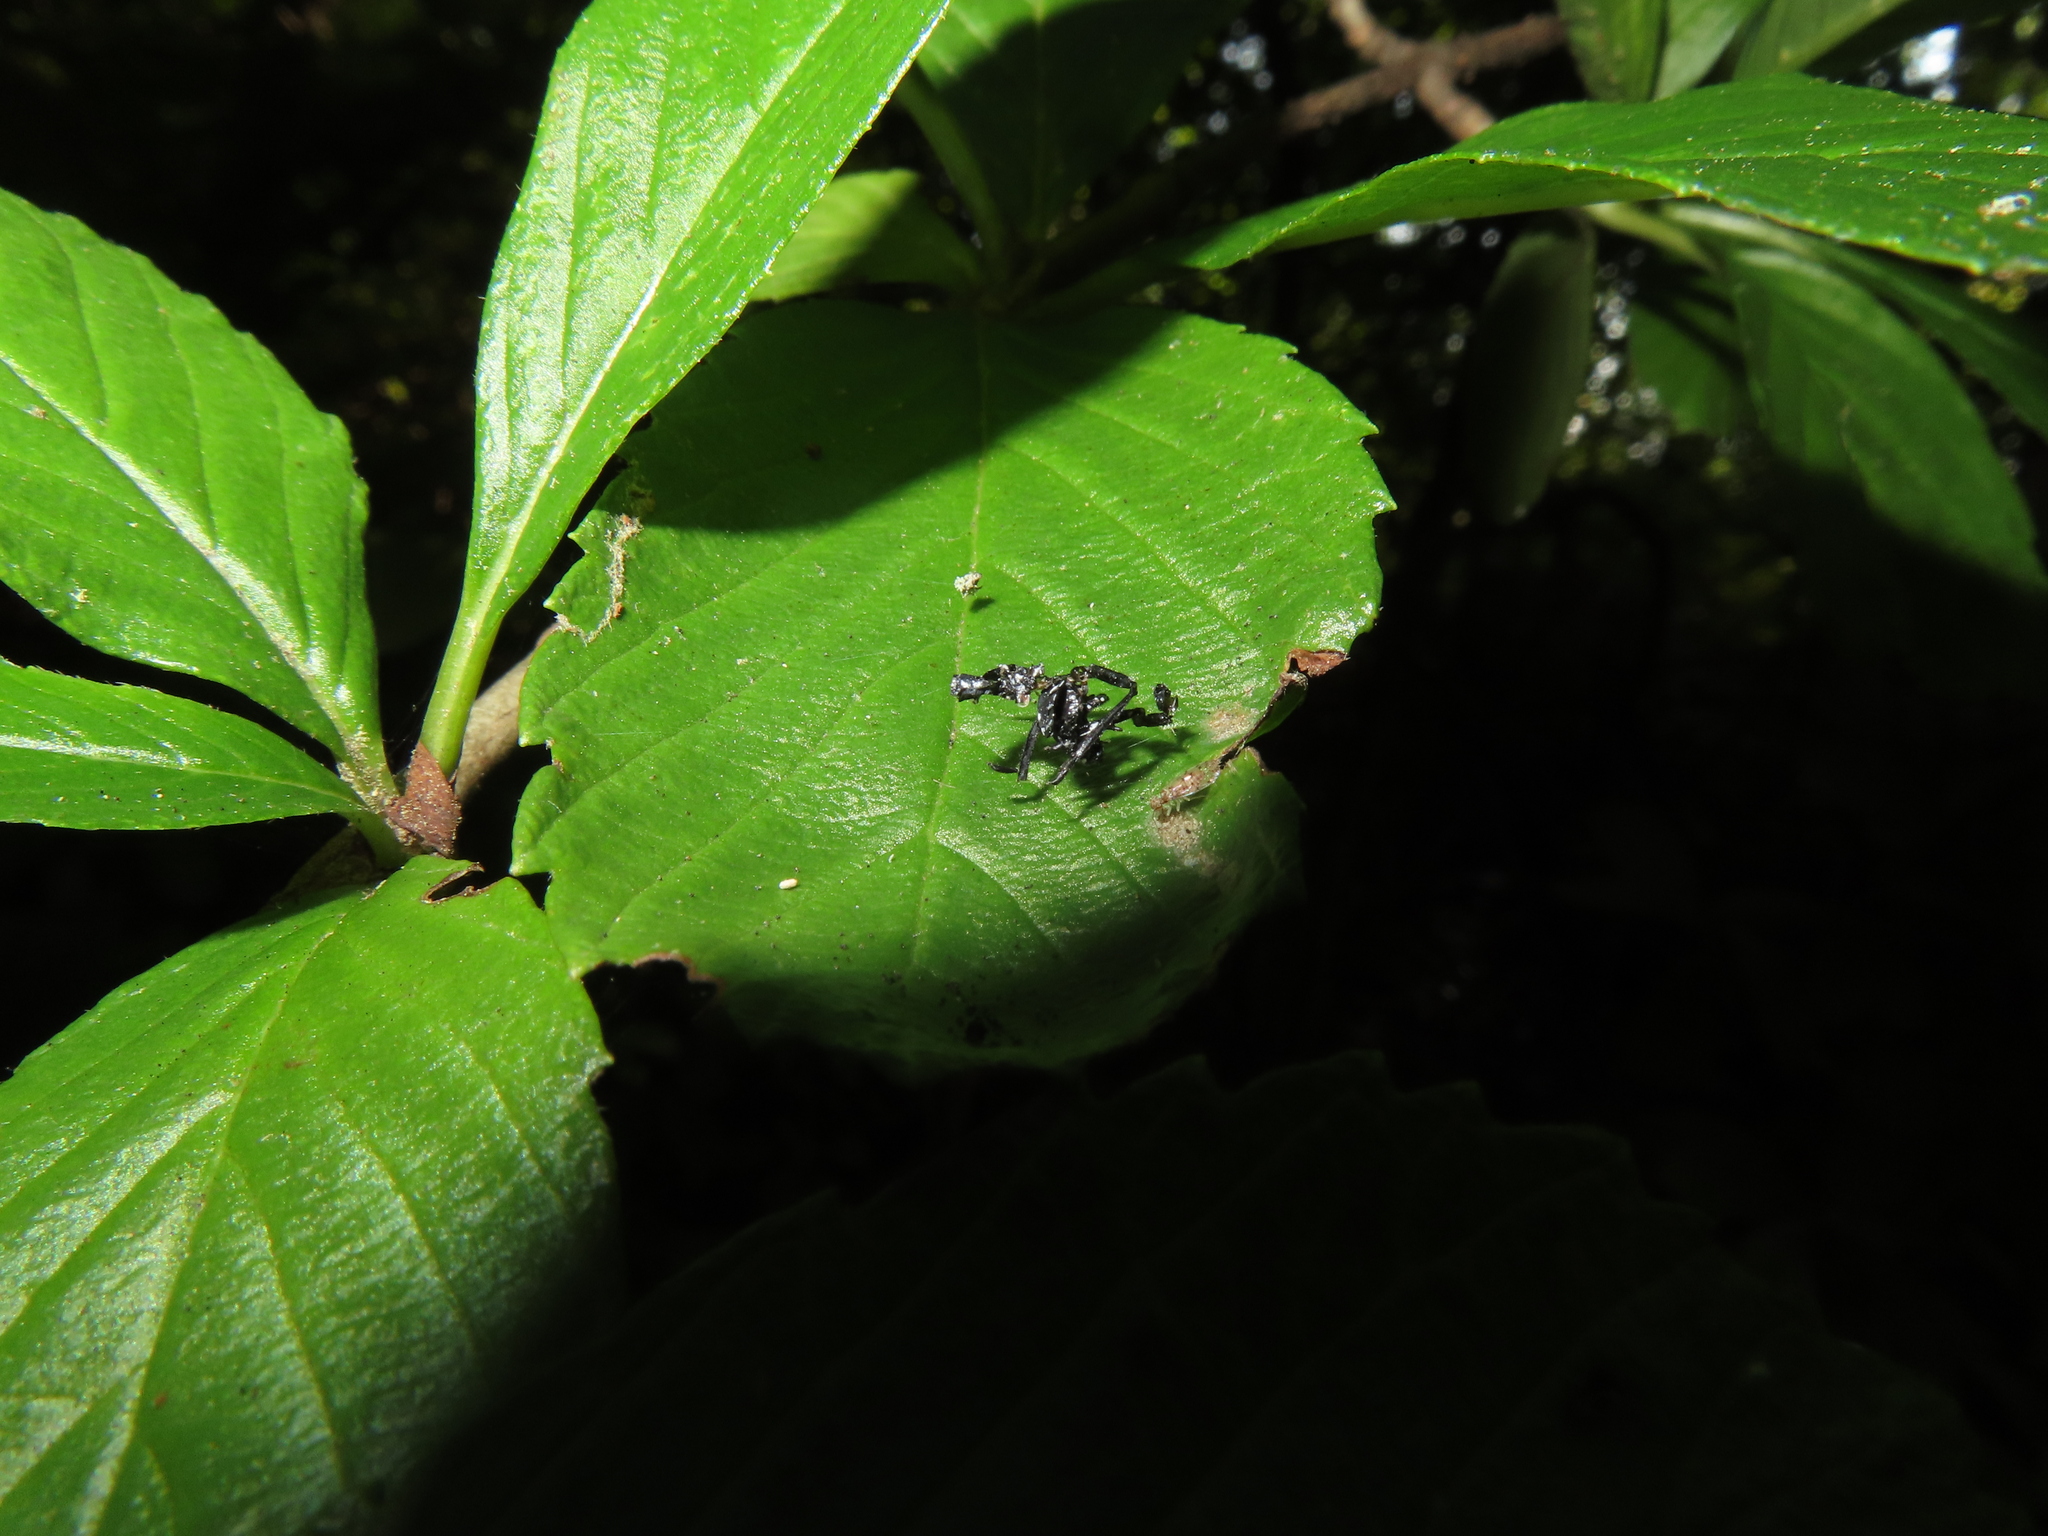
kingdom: Animalia
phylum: Arthropoda
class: Insecta
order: Hemiptera
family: Fulgoridae
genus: Lycorma
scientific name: Lycorma delicatula
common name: Spotted lanternfly
